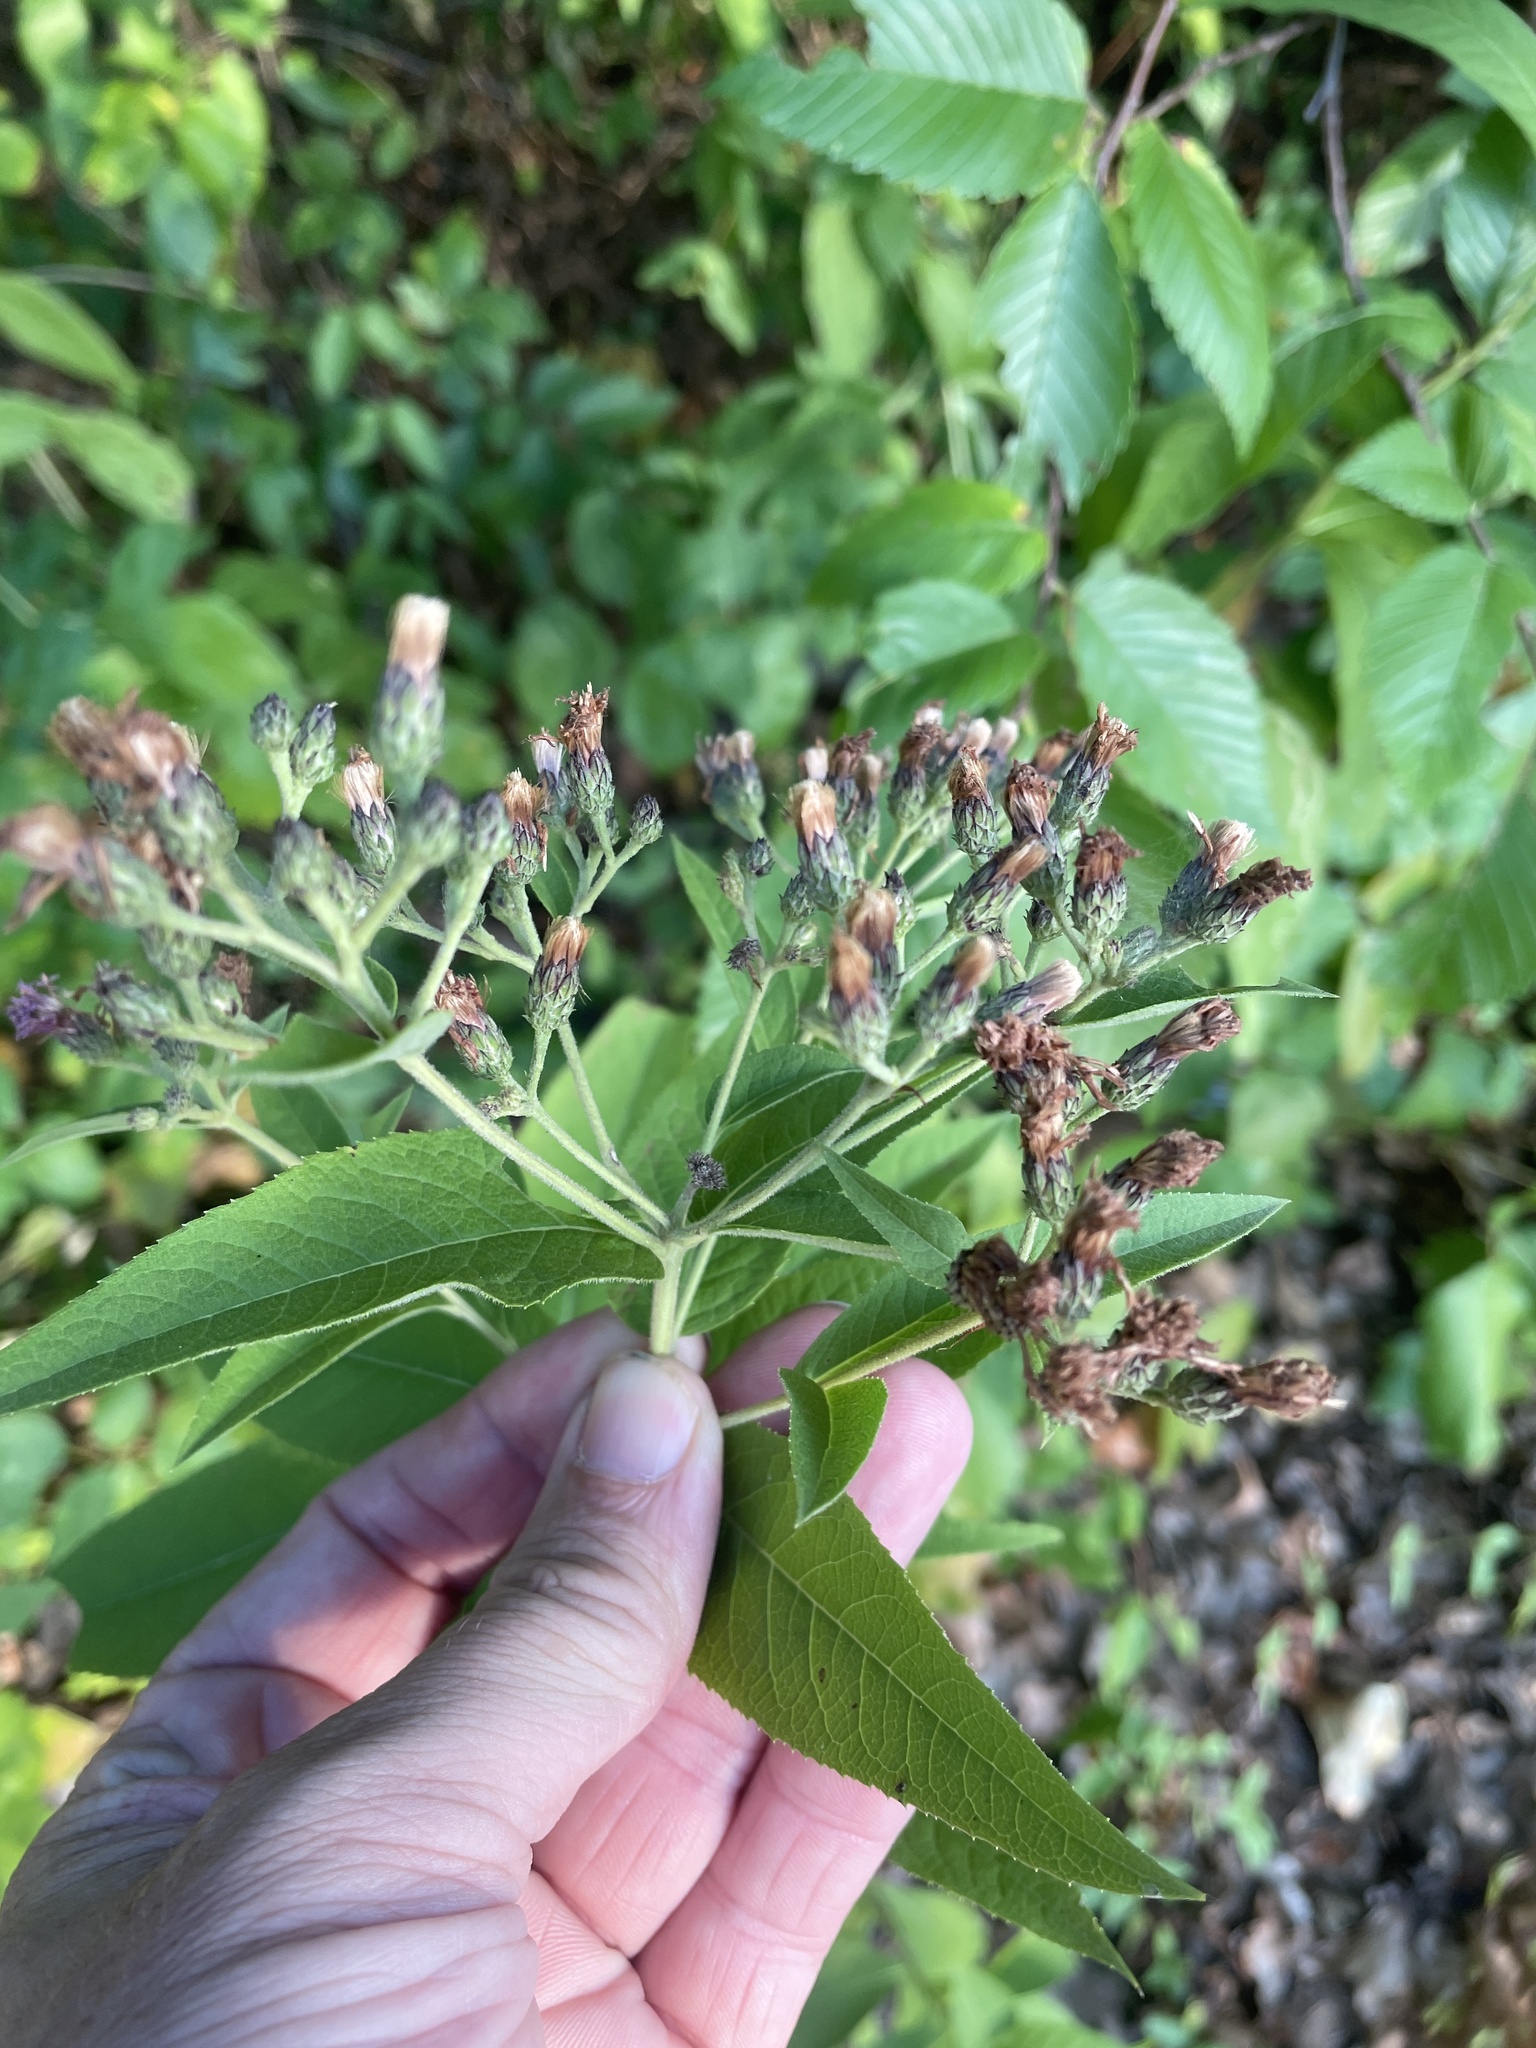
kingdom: Plantae
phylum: Tracheophyta
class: Magnoliopsida
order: Asterales
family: Asteraceae
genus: Vernonia
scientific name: Vernonia baldwinii
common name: Western ironweed
